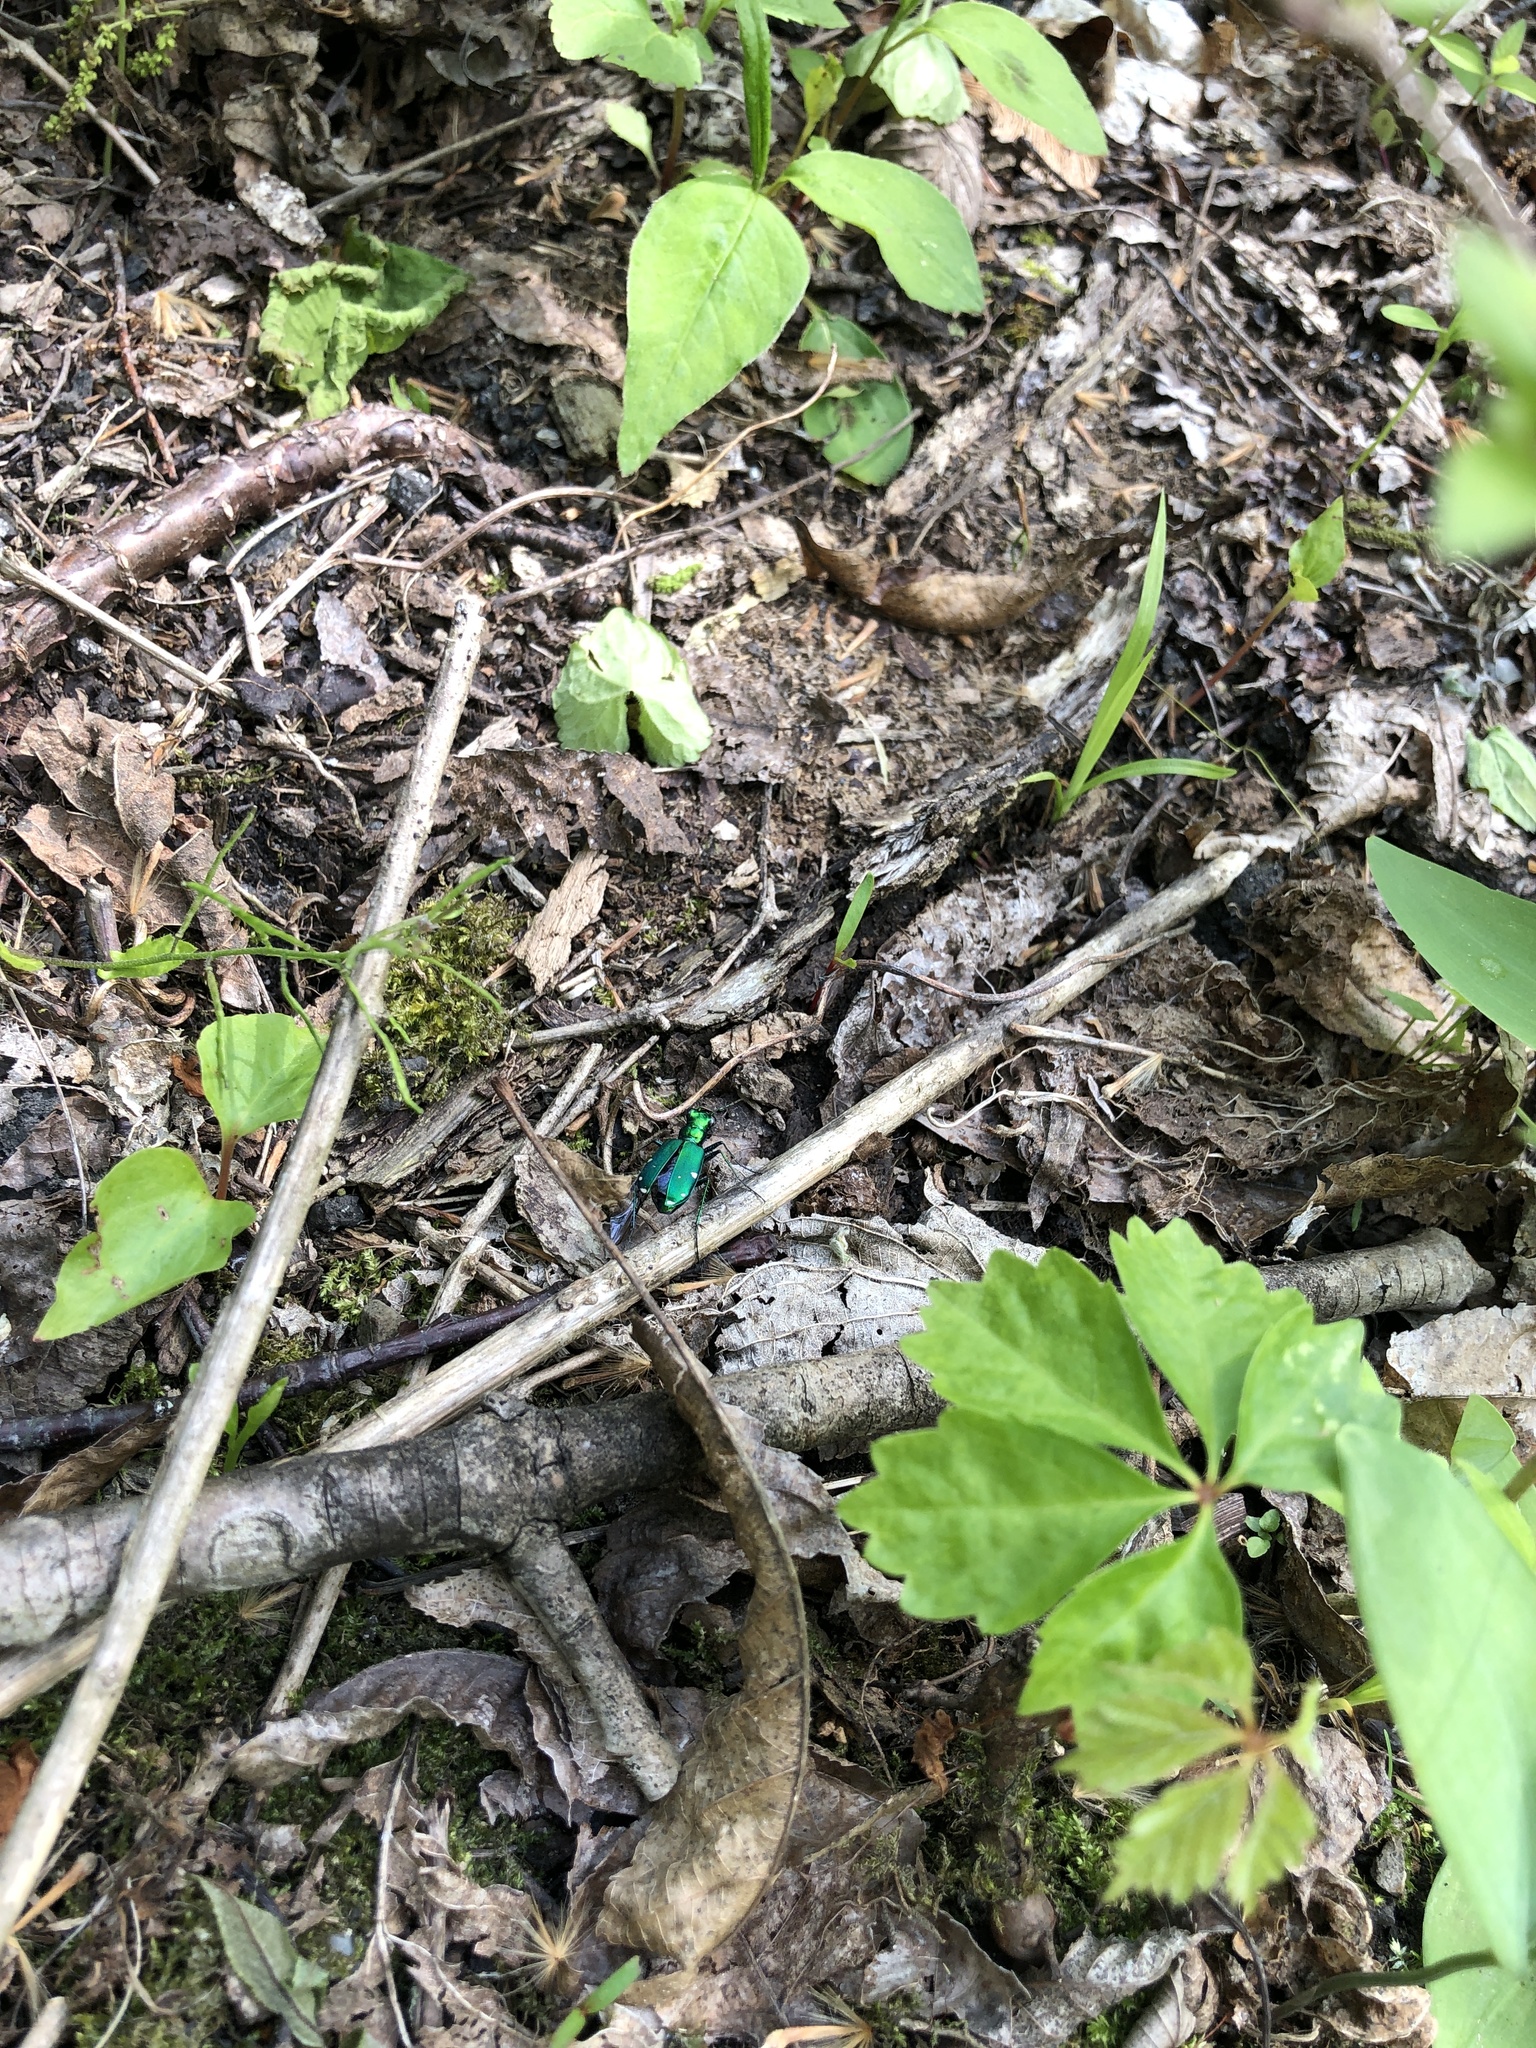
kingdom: Animalia
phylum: Arthropoda
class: Insecta
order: Coleoptera
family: Carabidae
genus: Cicindela
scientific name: Cicindela sexguttata
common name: Six-spotted tiger beetle
